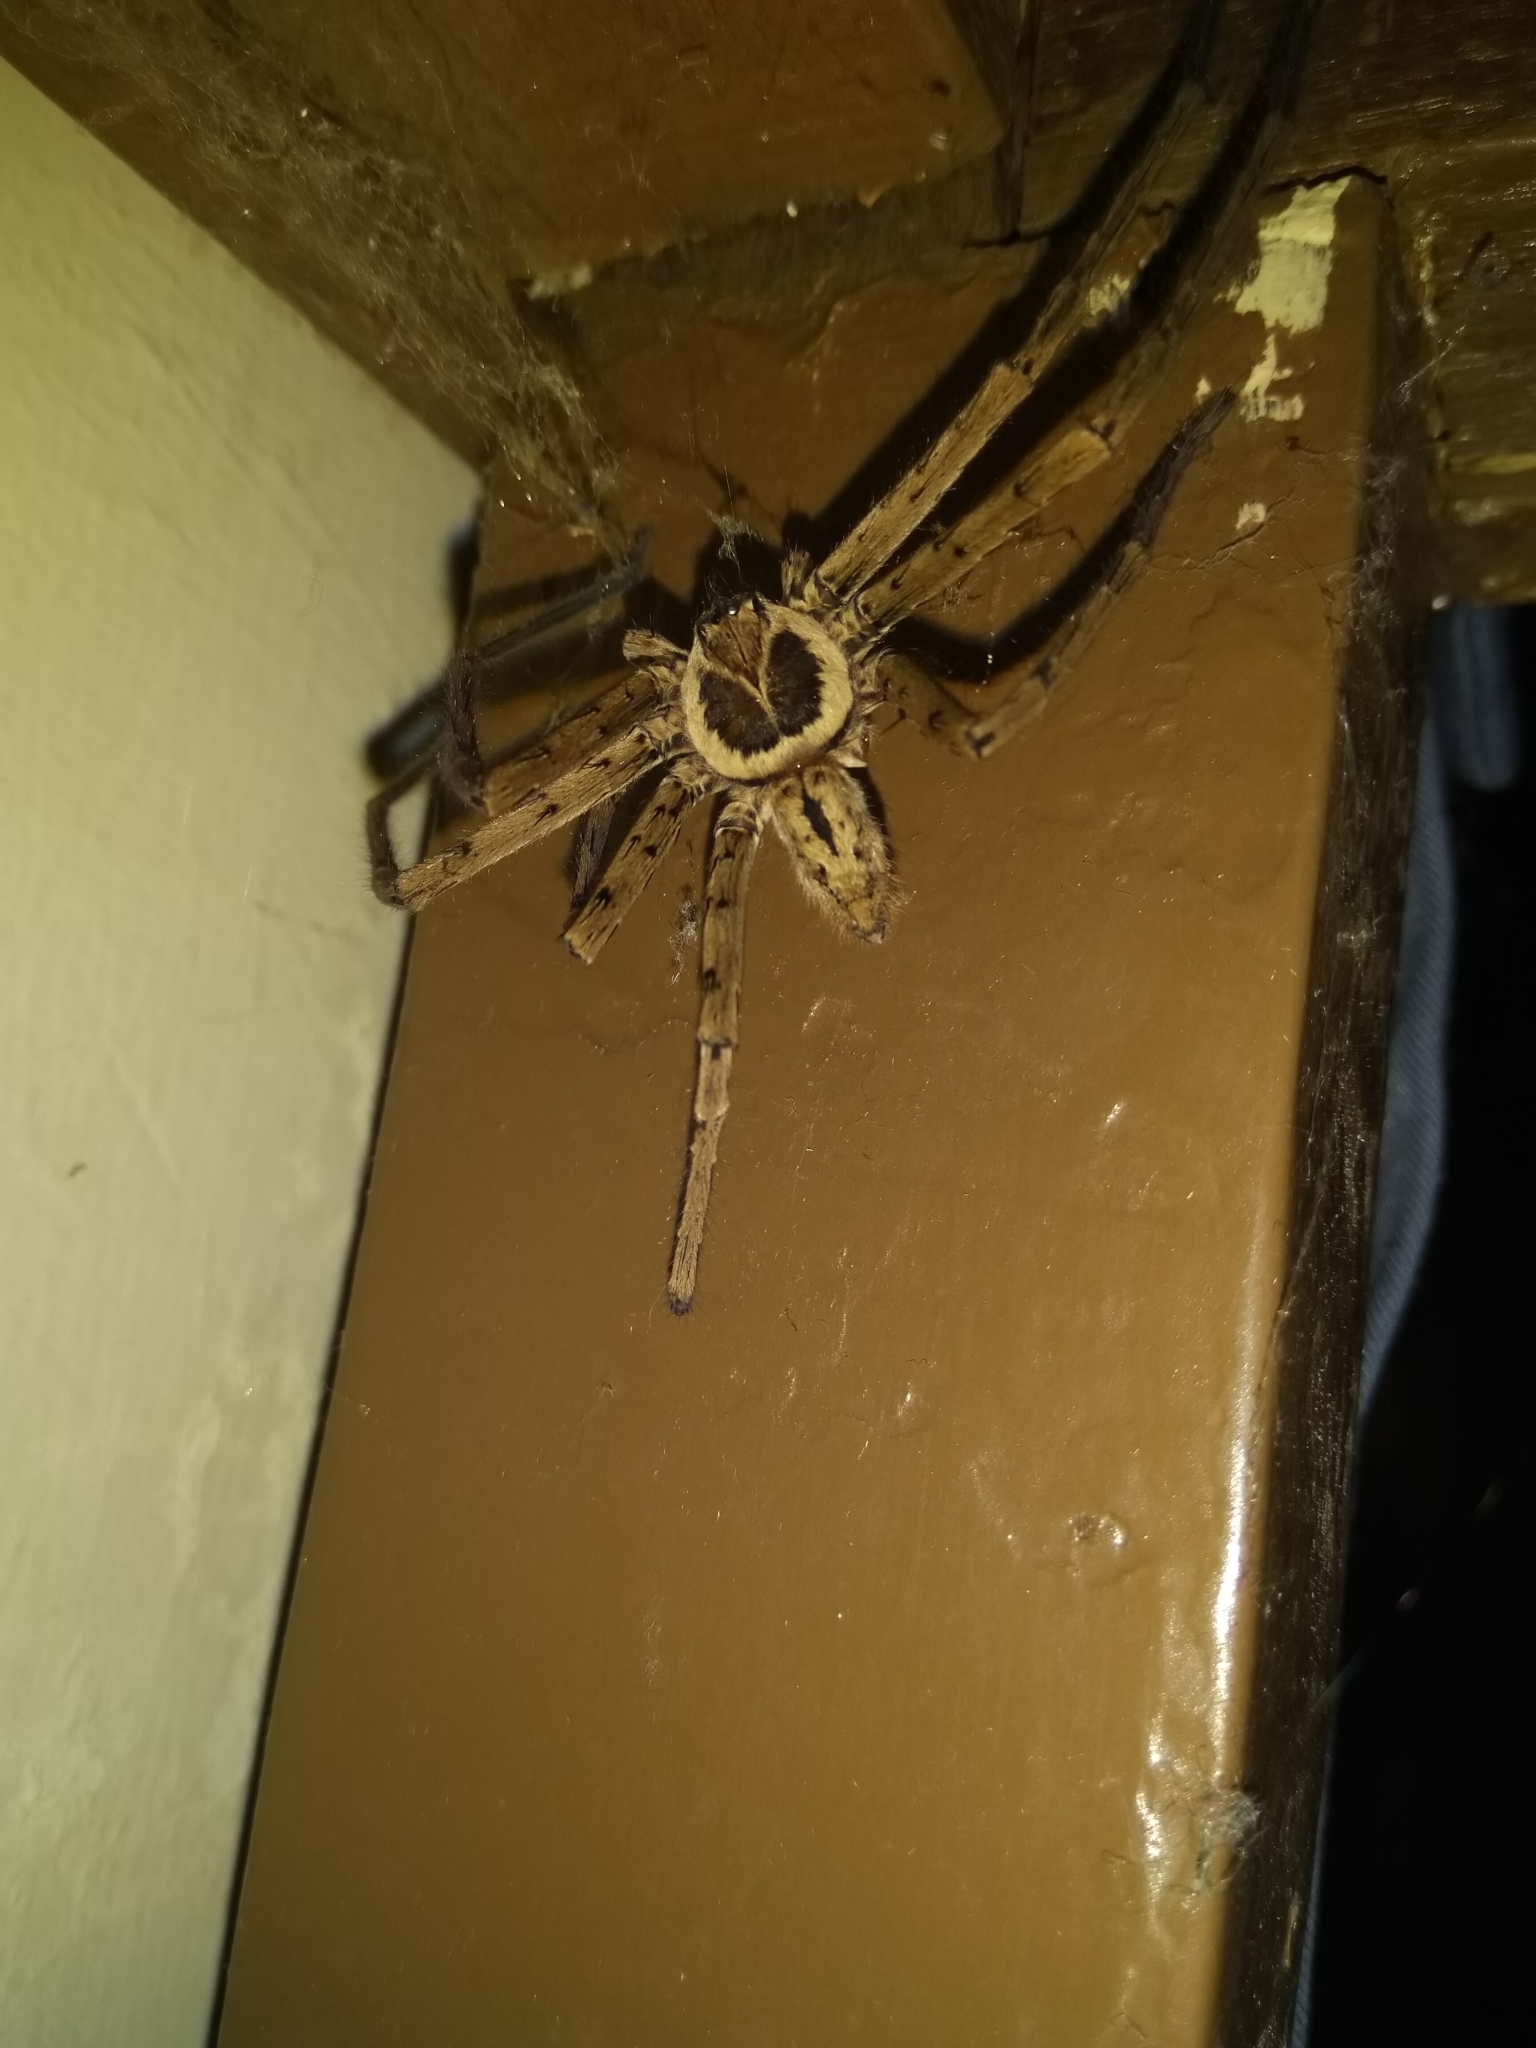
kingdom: Animalia
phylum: Arthropoda
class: Arachnida
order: Araneae
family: Sparassidae
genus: Heteropoda
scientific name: Heteropoda venatoria
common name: Huntsman spider
